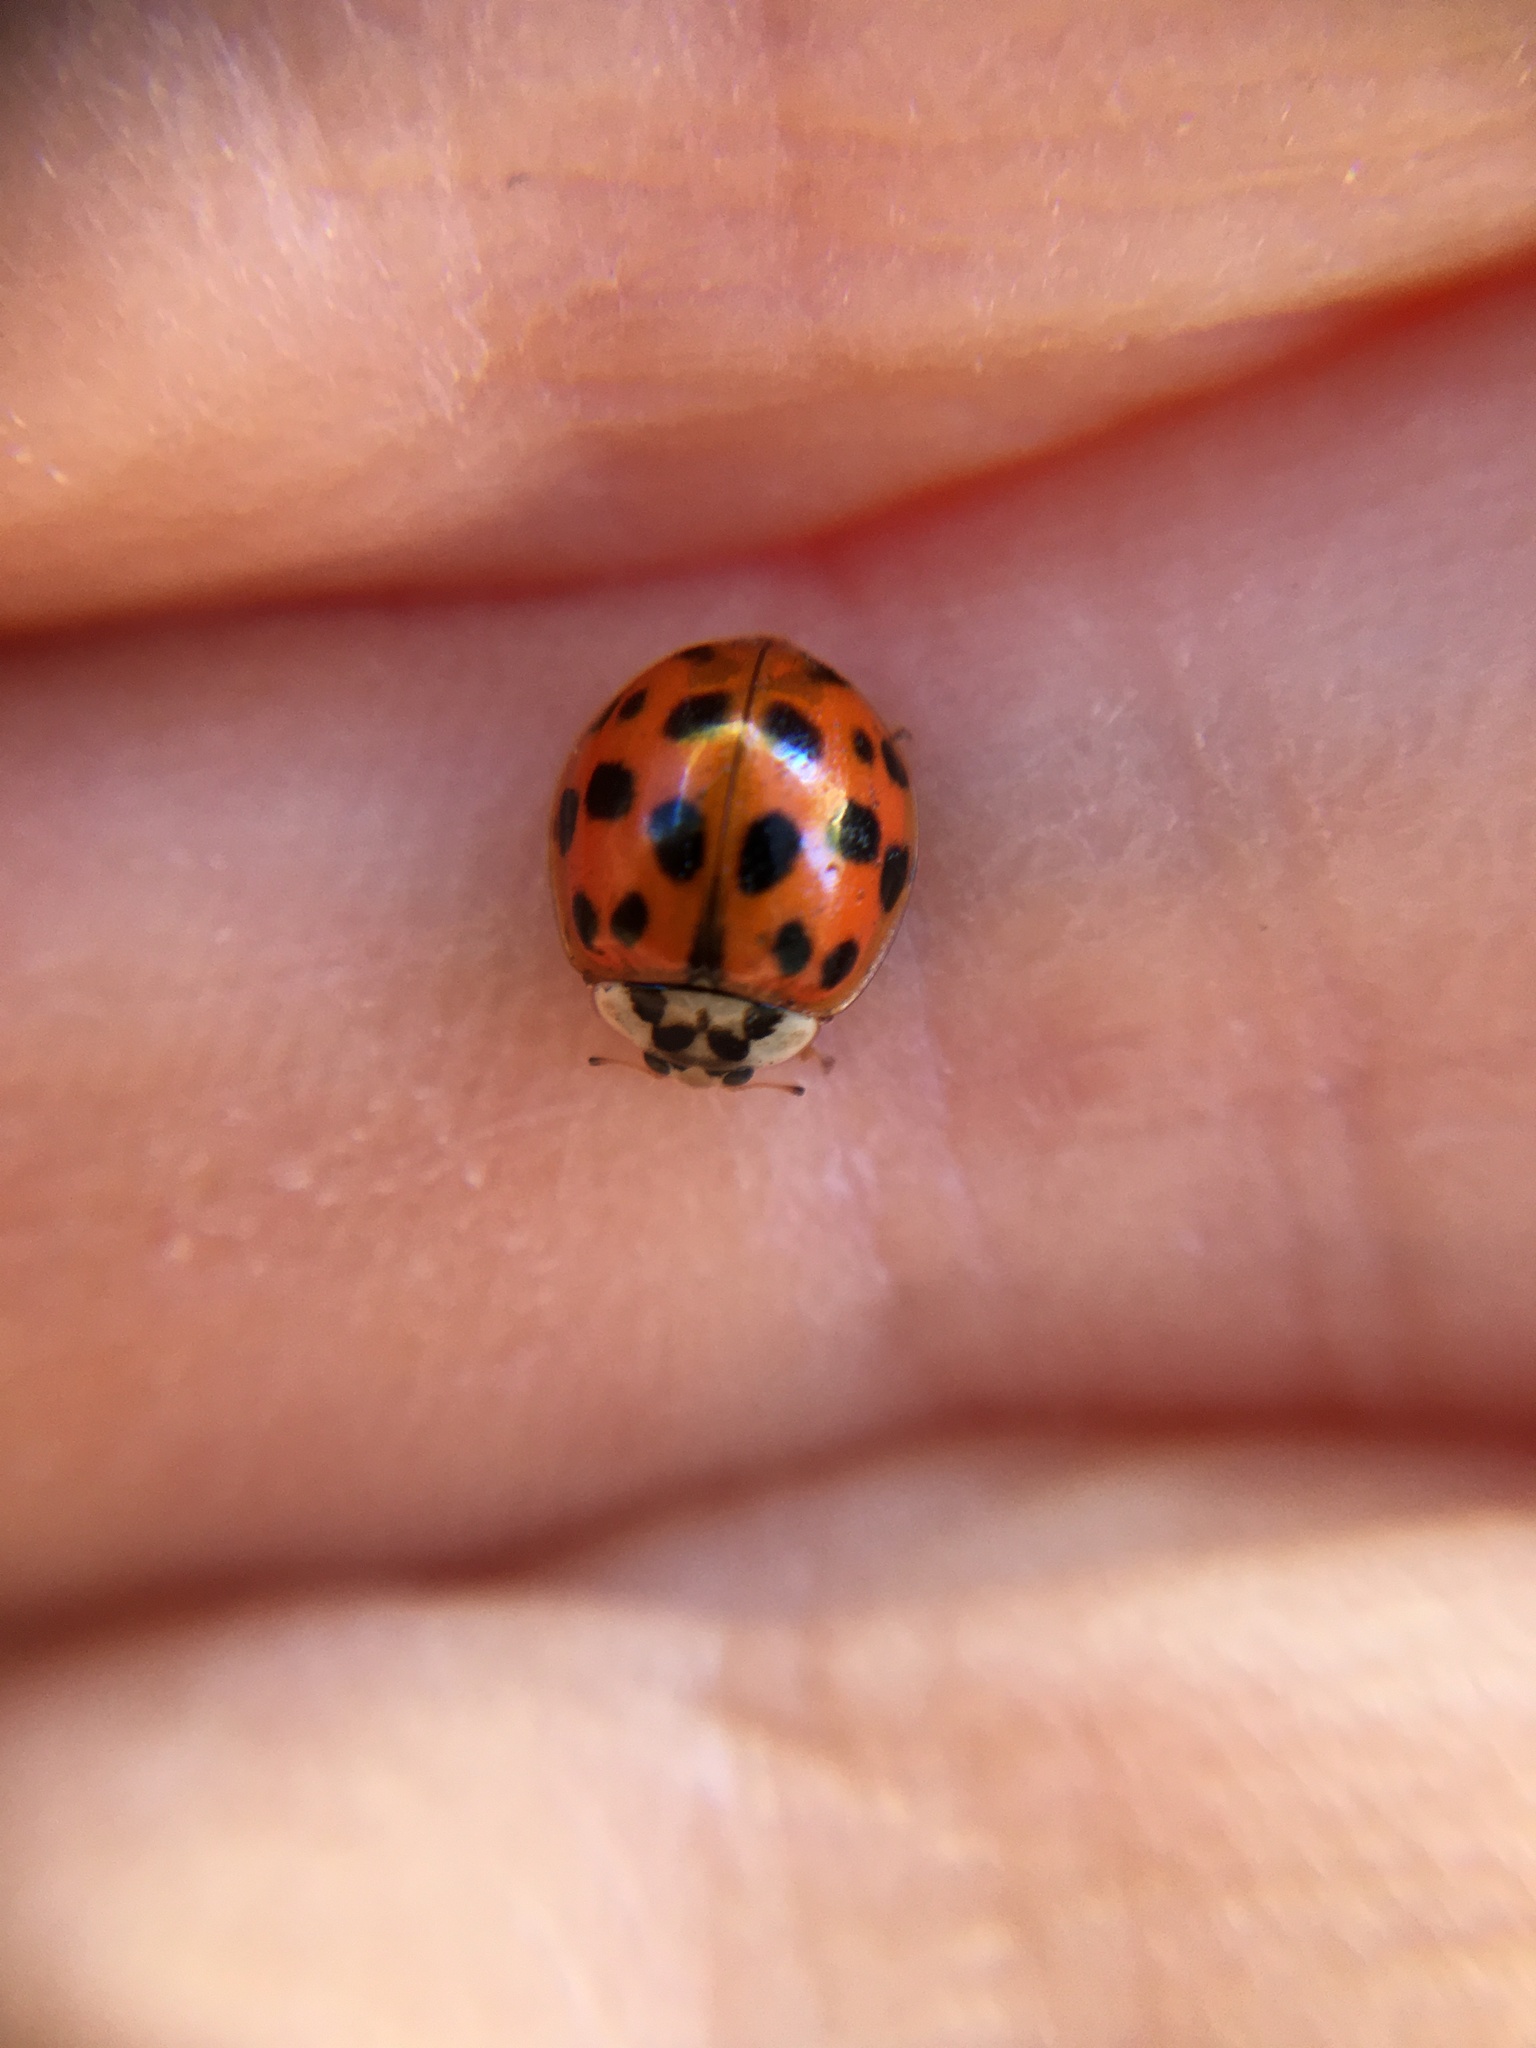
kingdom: Animalia
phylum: Arthropoda
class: Insecta
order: Coleoptera
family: Coccinellidae
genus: Harmonia
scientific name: Harmonia axyridis
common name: Harlequin ladybird
